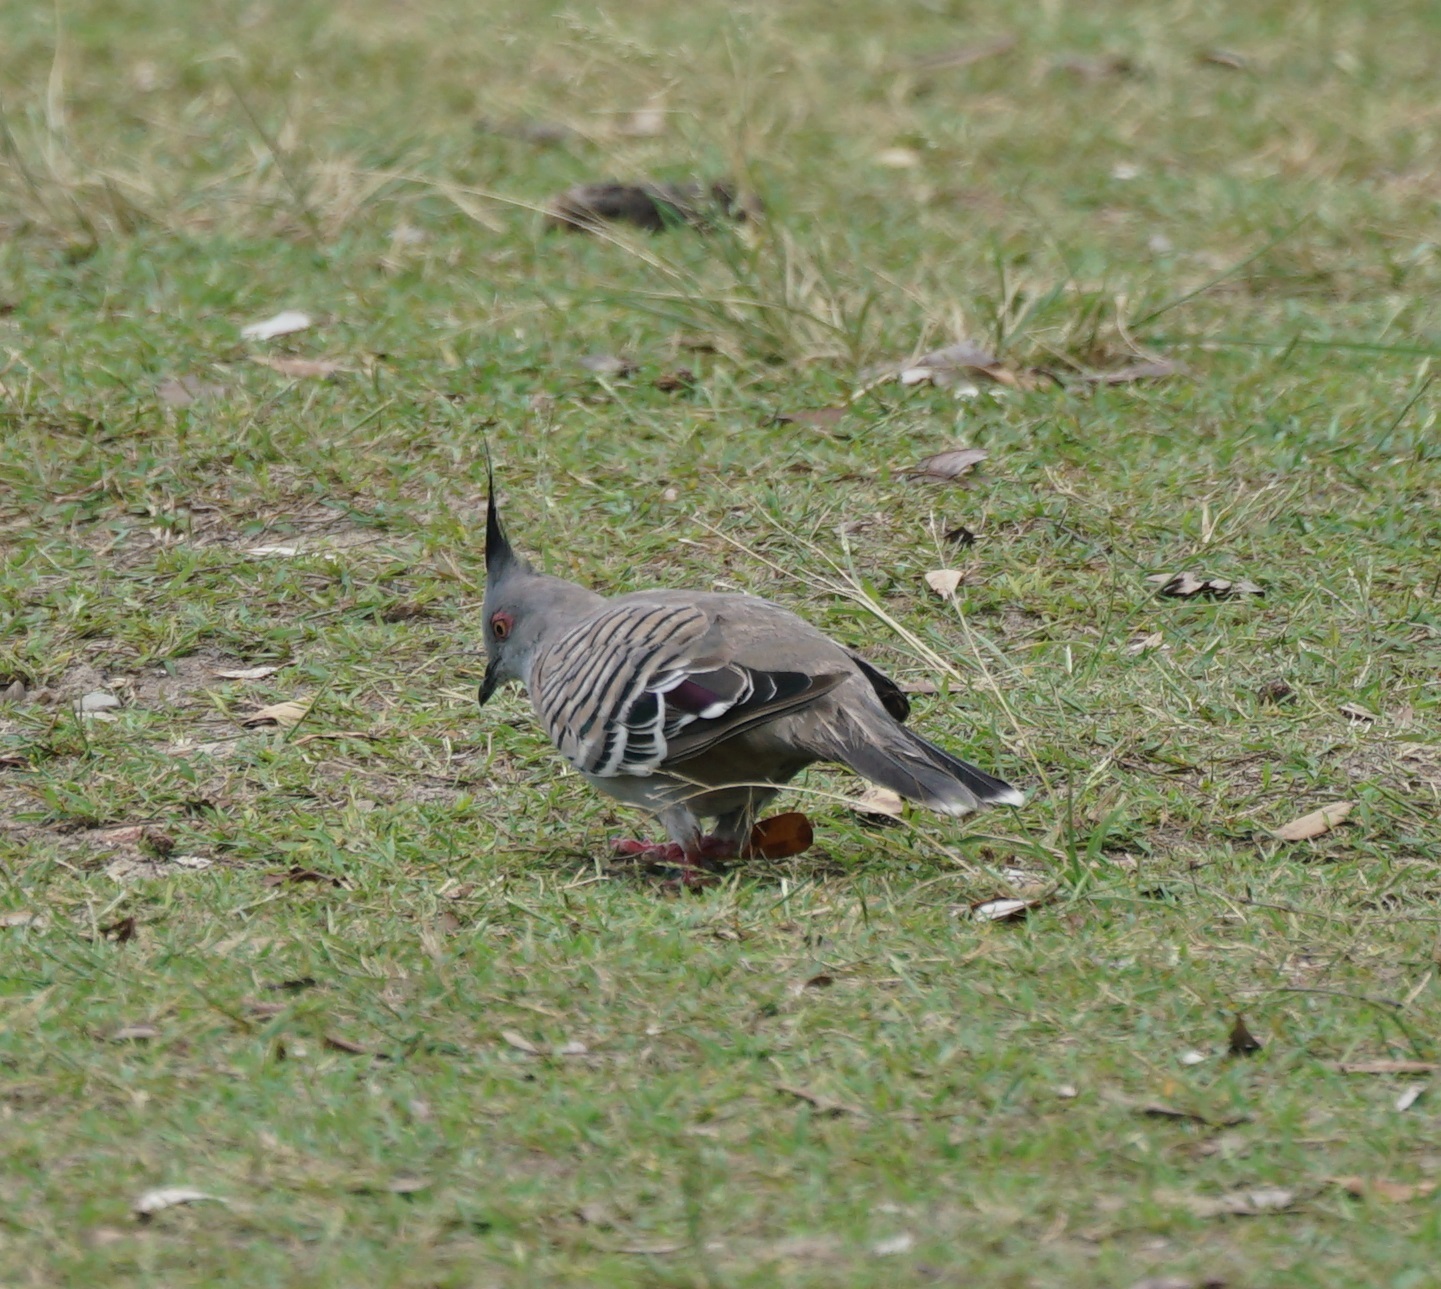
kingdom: Animalia
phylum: Chordata
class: Aves
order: Columbiformes
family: Columbidae
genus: Ocyphaps
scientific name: Ocyphaps lophotes
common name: Crested pigeon
